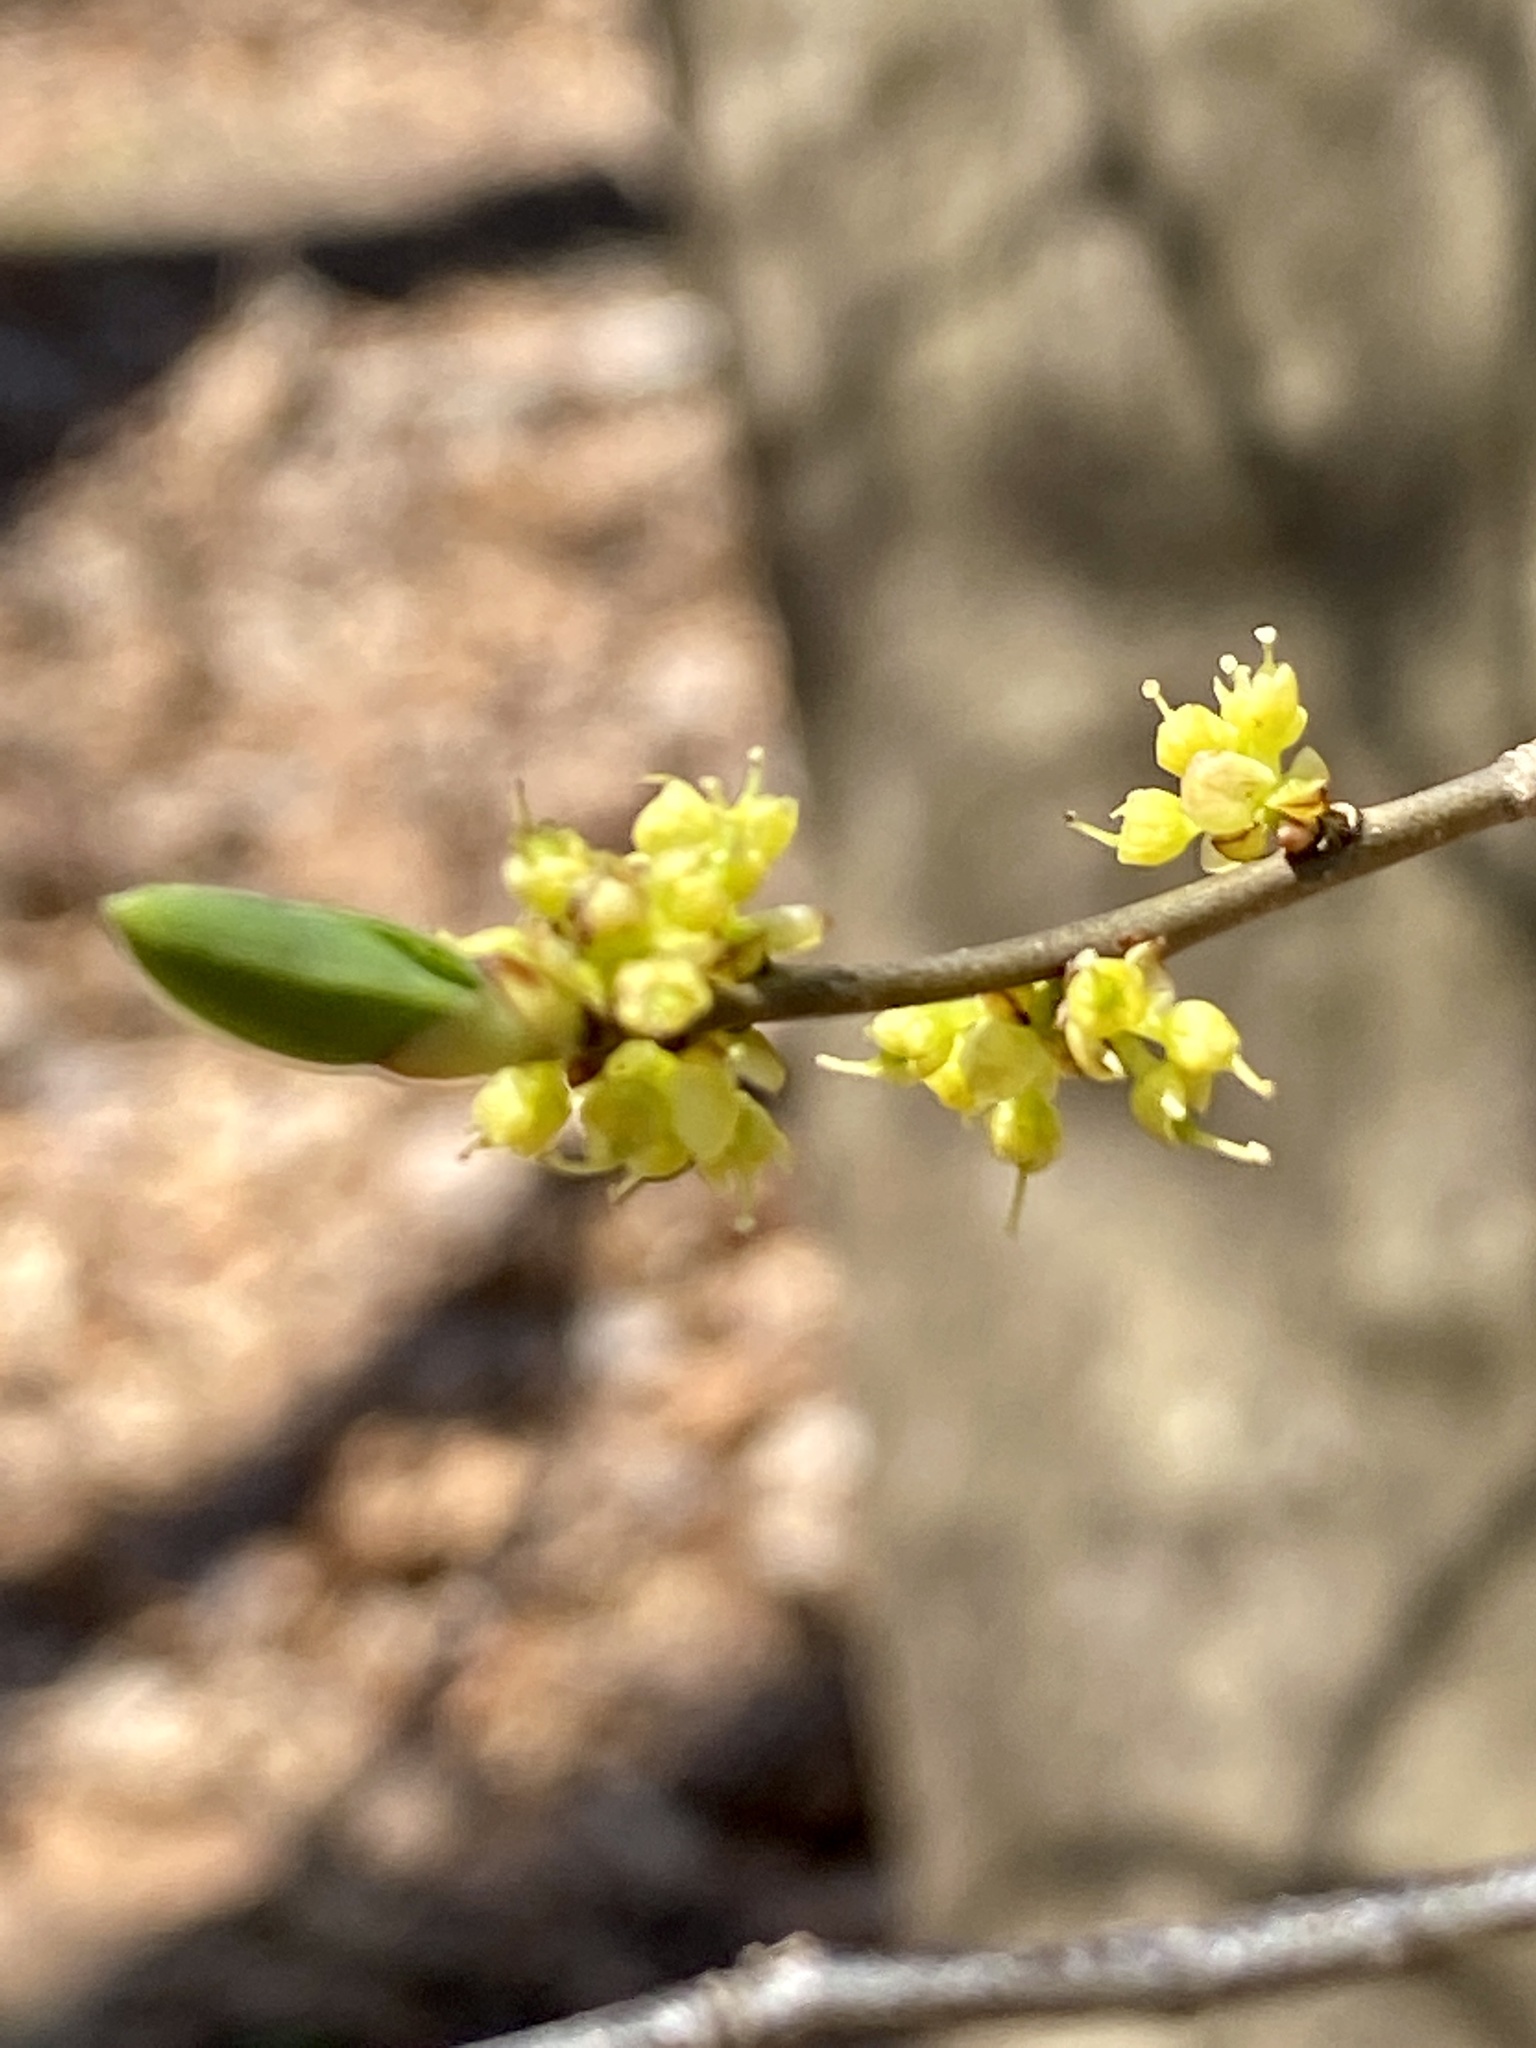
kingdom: Plantae
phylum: Tracheophyta
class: Magnoliopsida
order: Laurales
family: Lauraceae
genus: Lindera
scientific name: Lindera benzoin
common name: Spicebush
